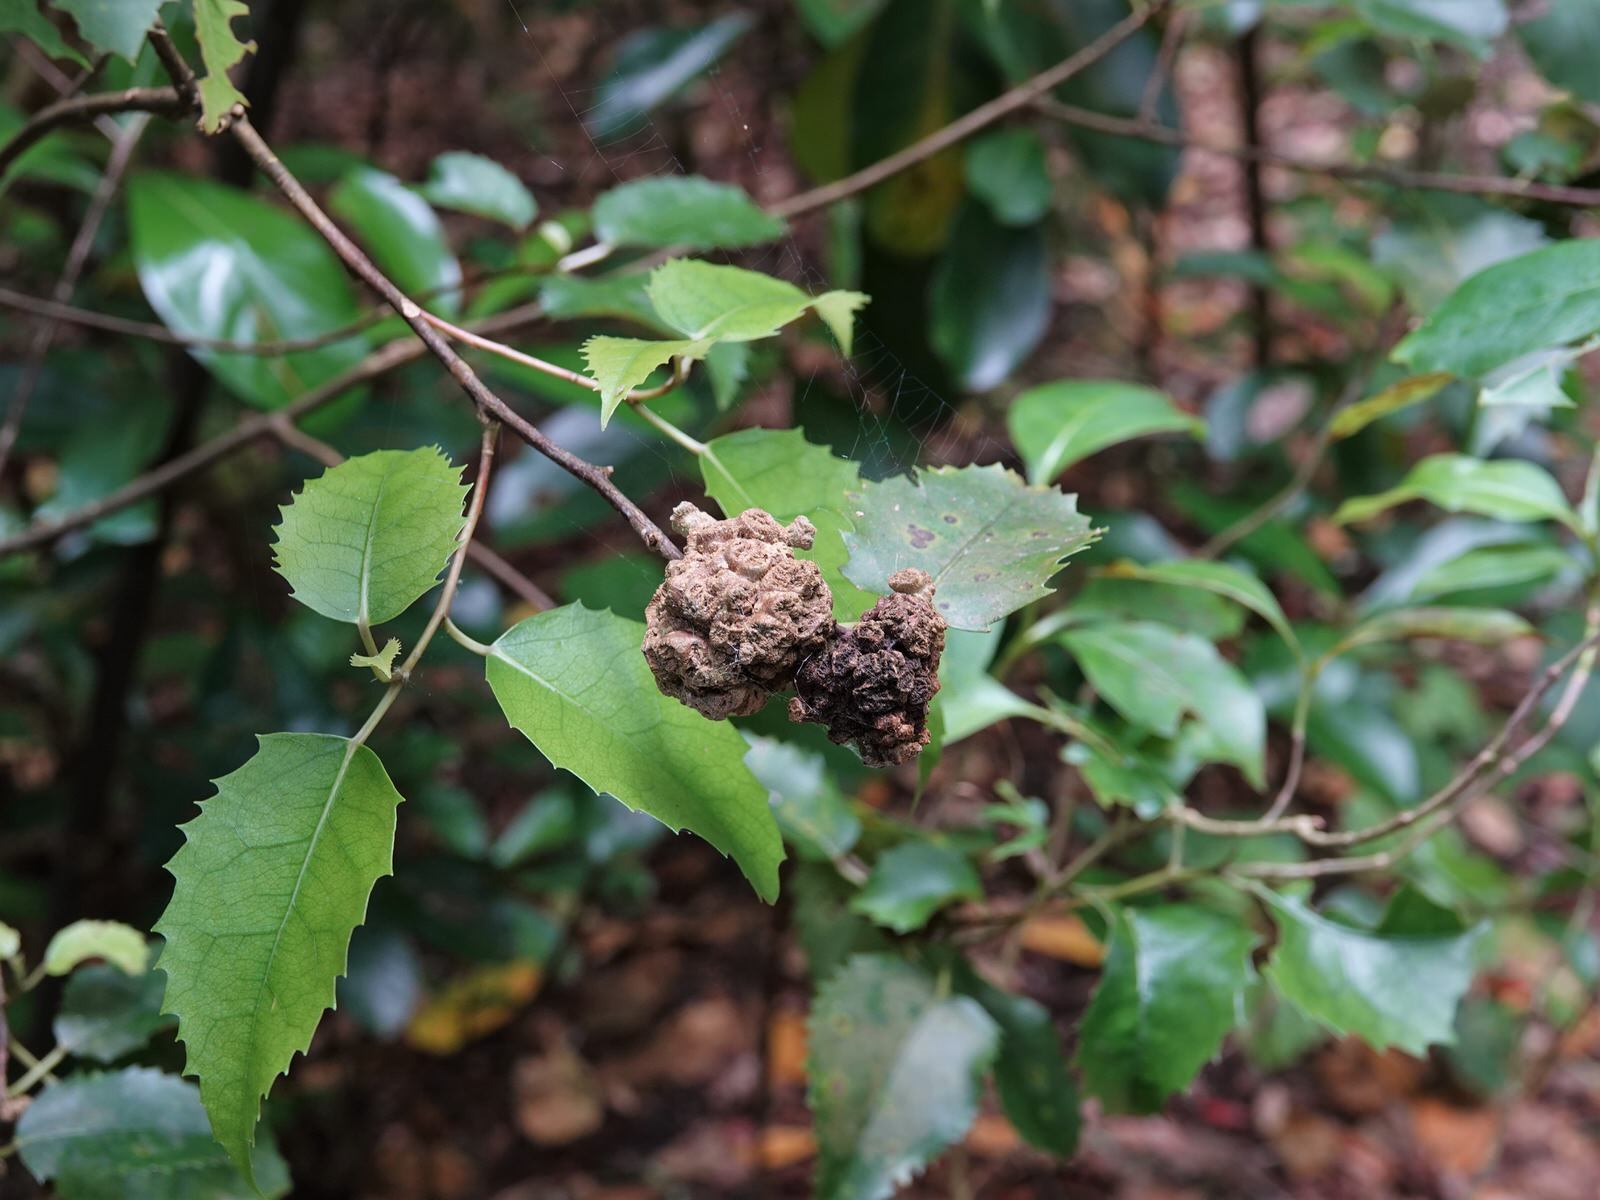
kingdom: Animalia
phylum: Arthropoda
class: Arachnida
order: Trombidiformes
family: Eriophyidae
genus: Eriophyes
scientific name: Eriophyes hoheriae
